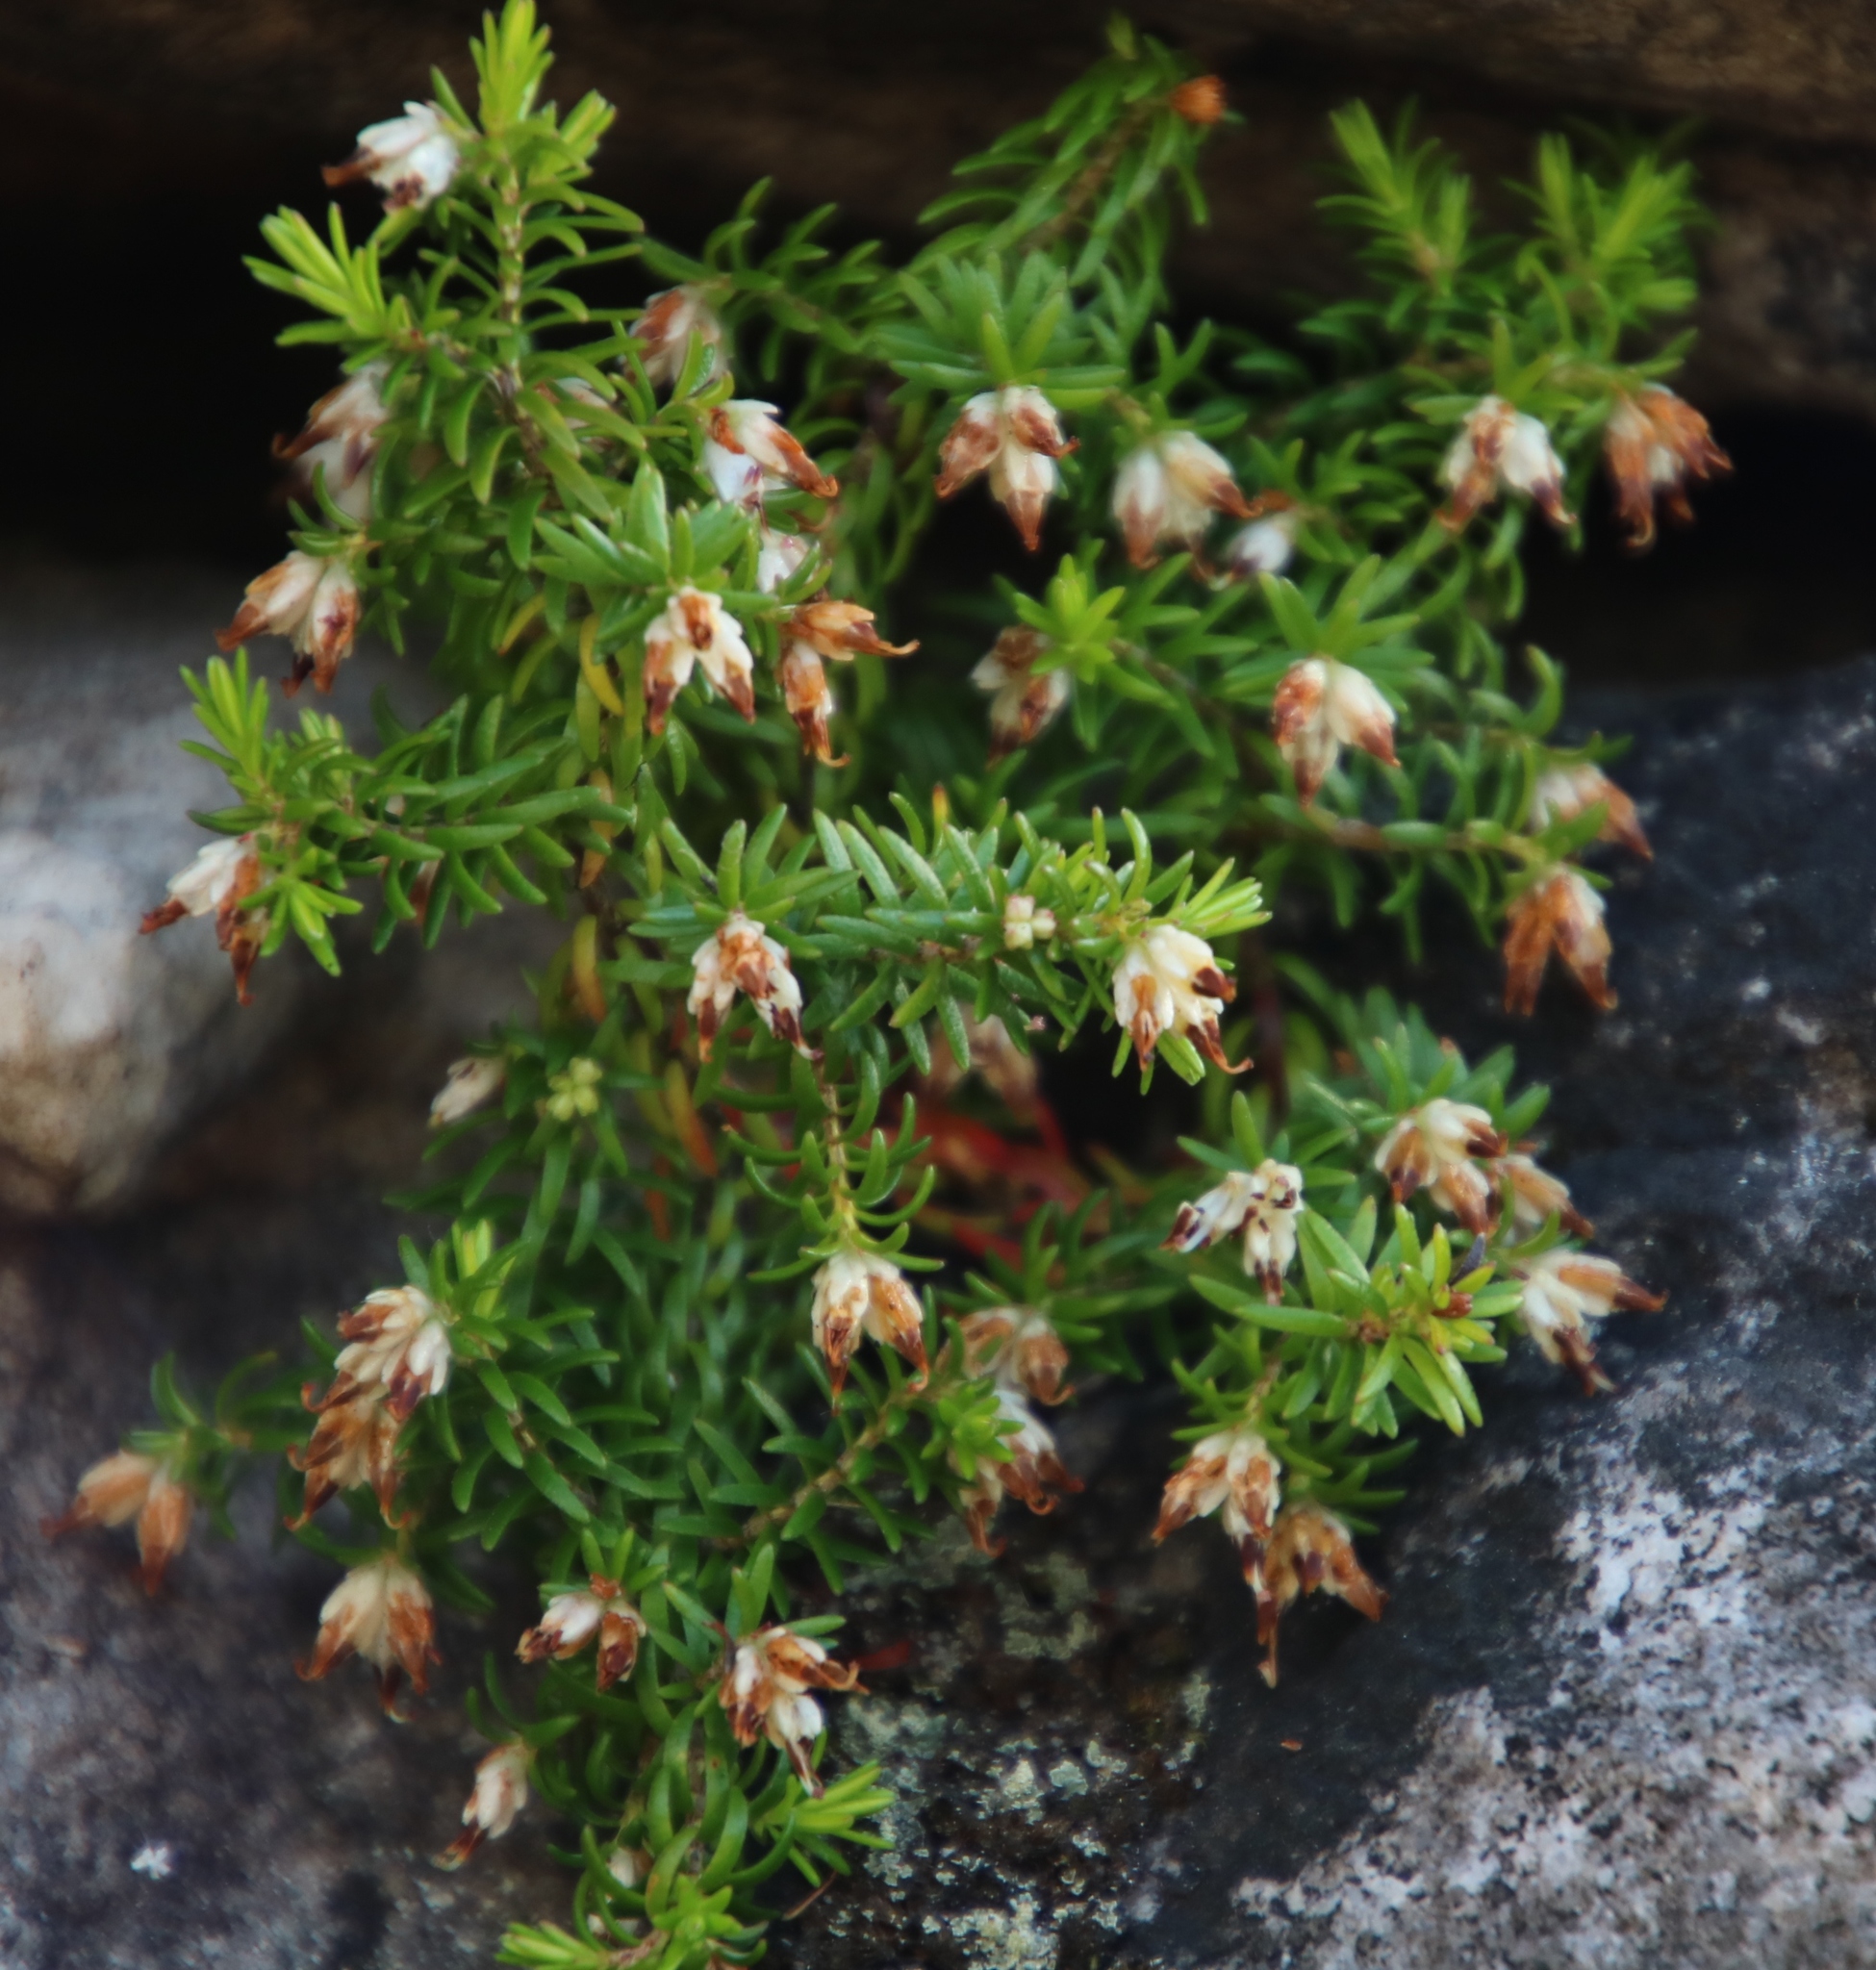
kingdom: Plantae
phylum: Tracheophyta
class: Magnoliopsida
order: Ericales
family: Ericaceae
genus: Erica
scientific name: Erica genistifolia
